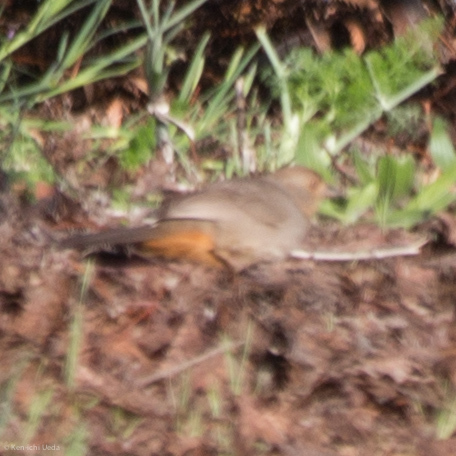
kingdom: Animalia
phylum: Chordata
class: Aves
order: Passeriformes
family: Passerellidae
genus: Melozone
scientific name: Melozone crissalis
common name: California towhee
